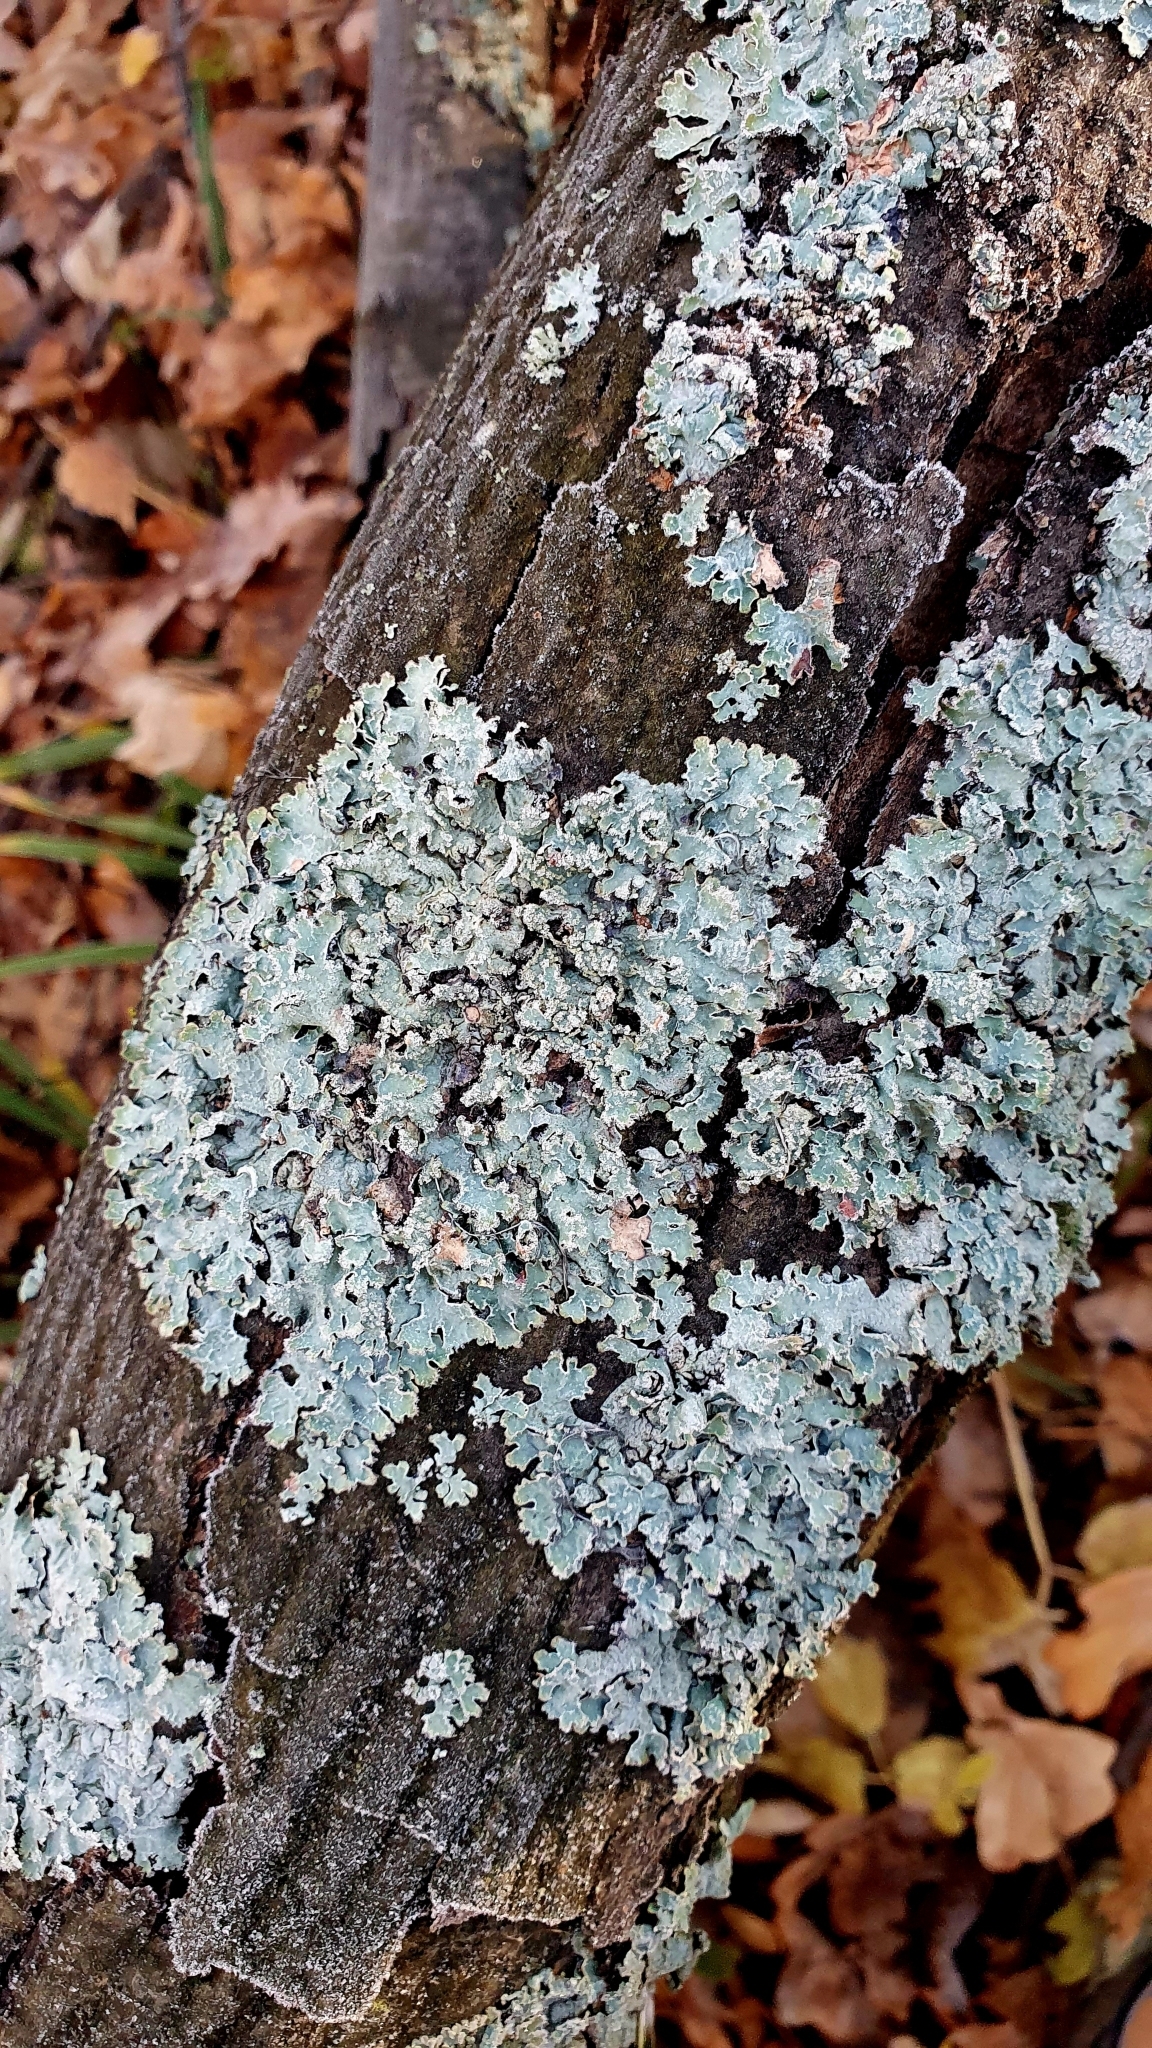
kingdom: Fungi
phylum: Ascomycota
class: Lecanoromycetes
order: Lecanorales
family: Parmeliaceae
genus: Parmelia
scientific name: Parmelia sulcata
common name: Netted shield lichen
